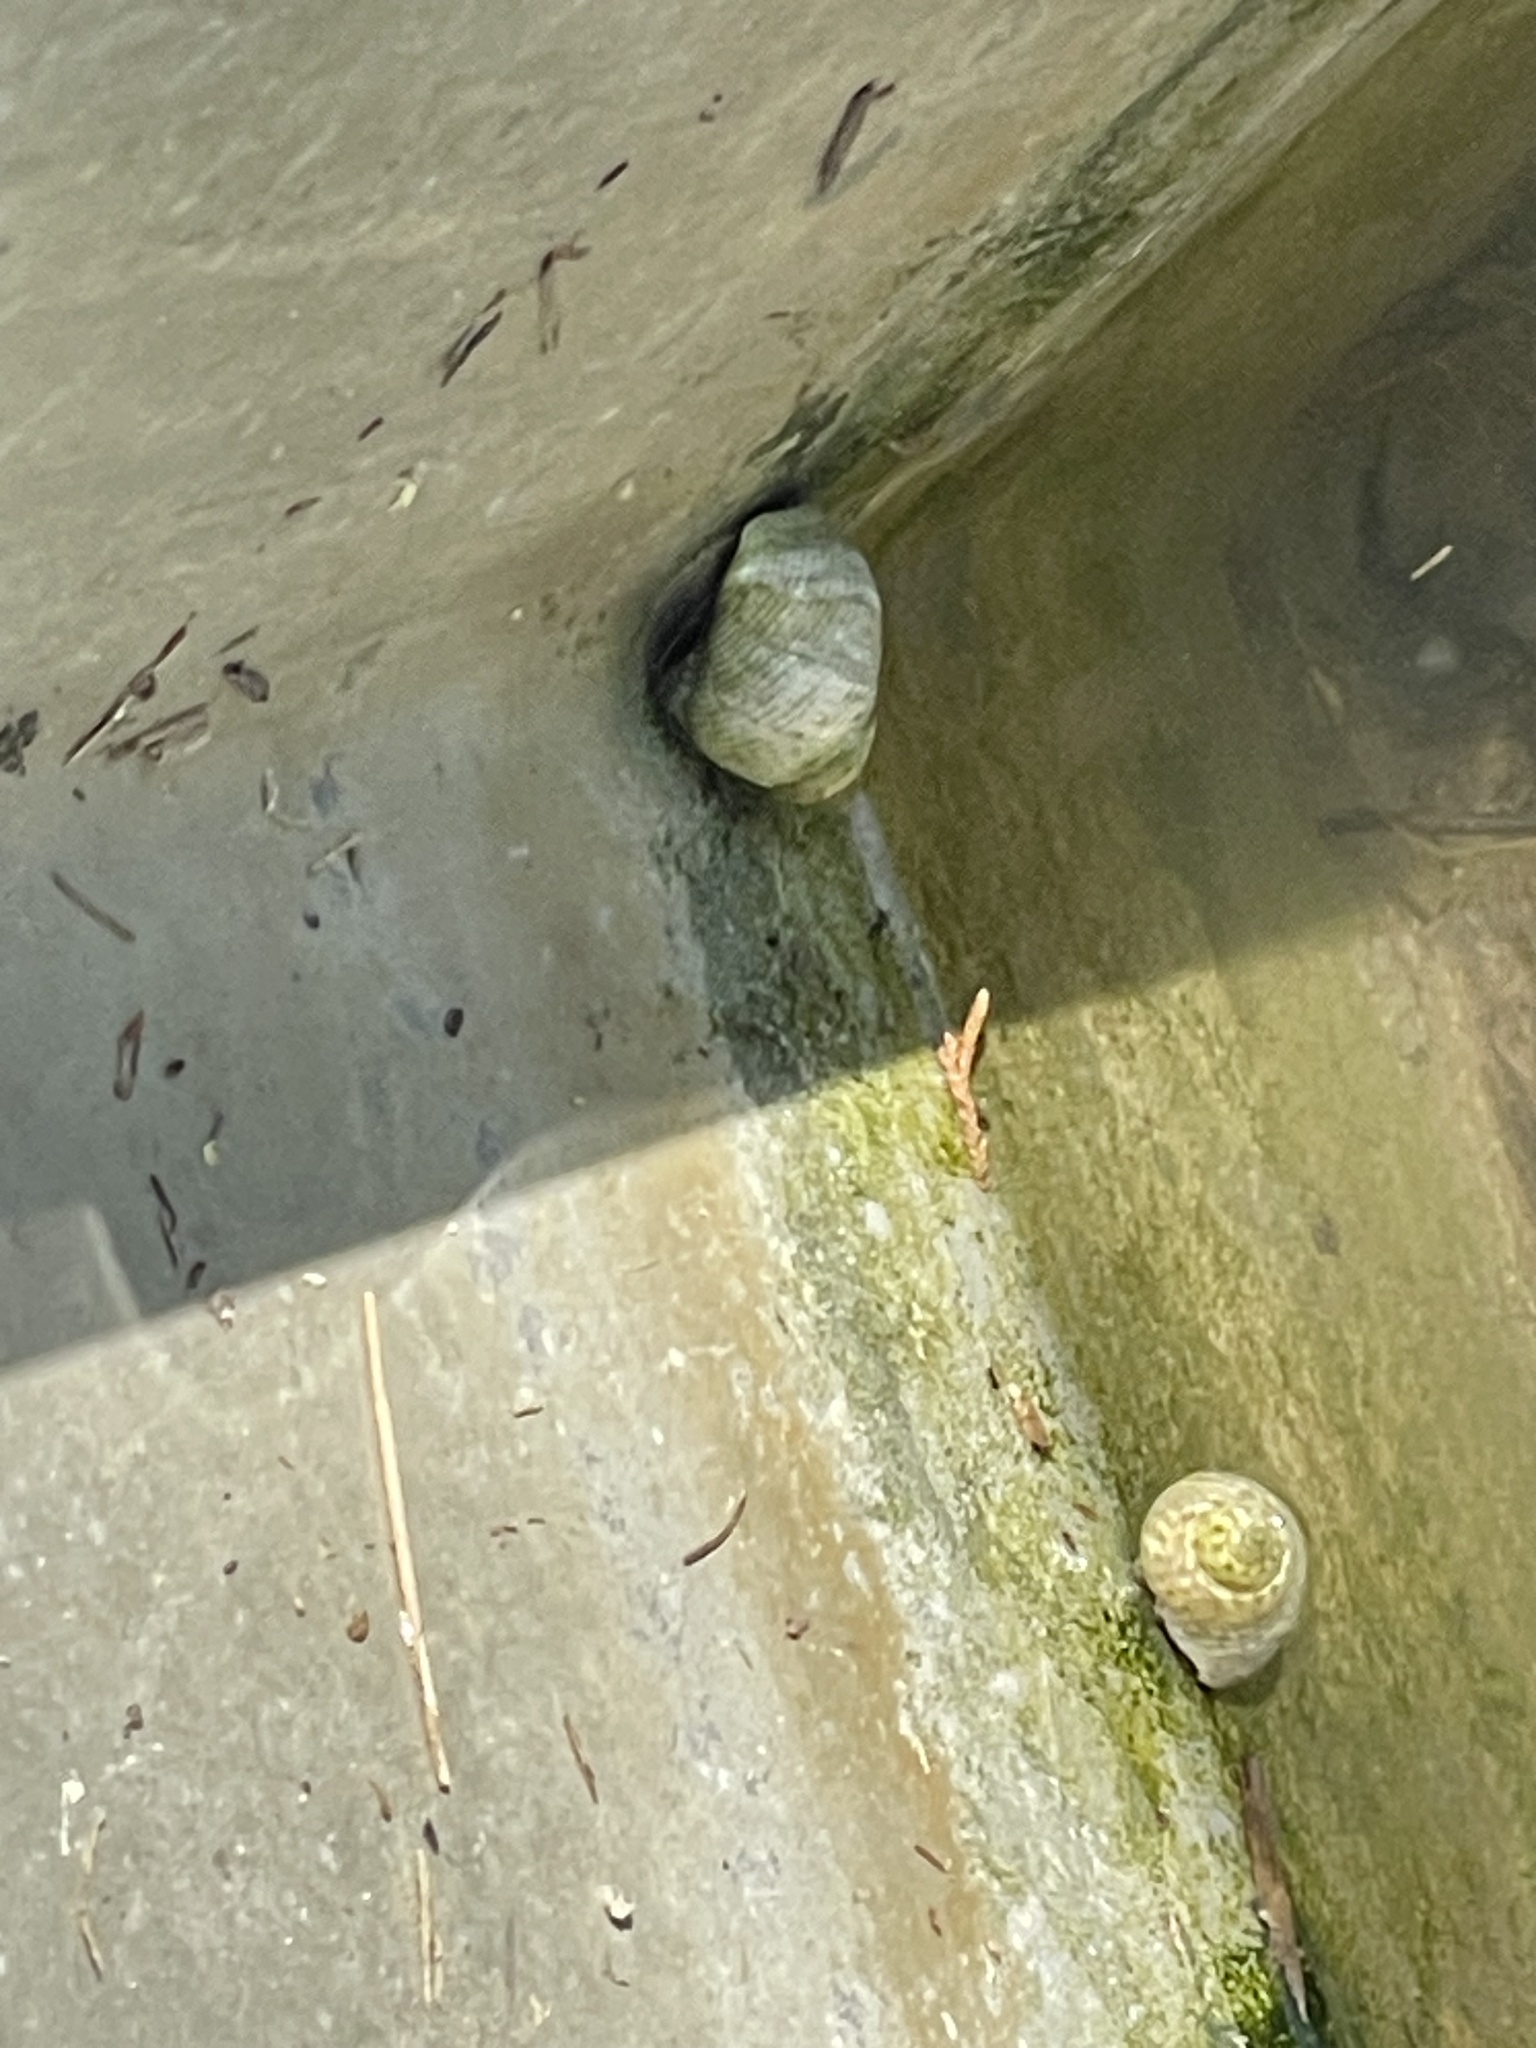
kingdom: Animalia
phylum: Mollusca
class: Gastropoda
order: Littorinimorpha
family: Littorinidae
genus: Littoraria
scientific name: Littoraria irrorata
